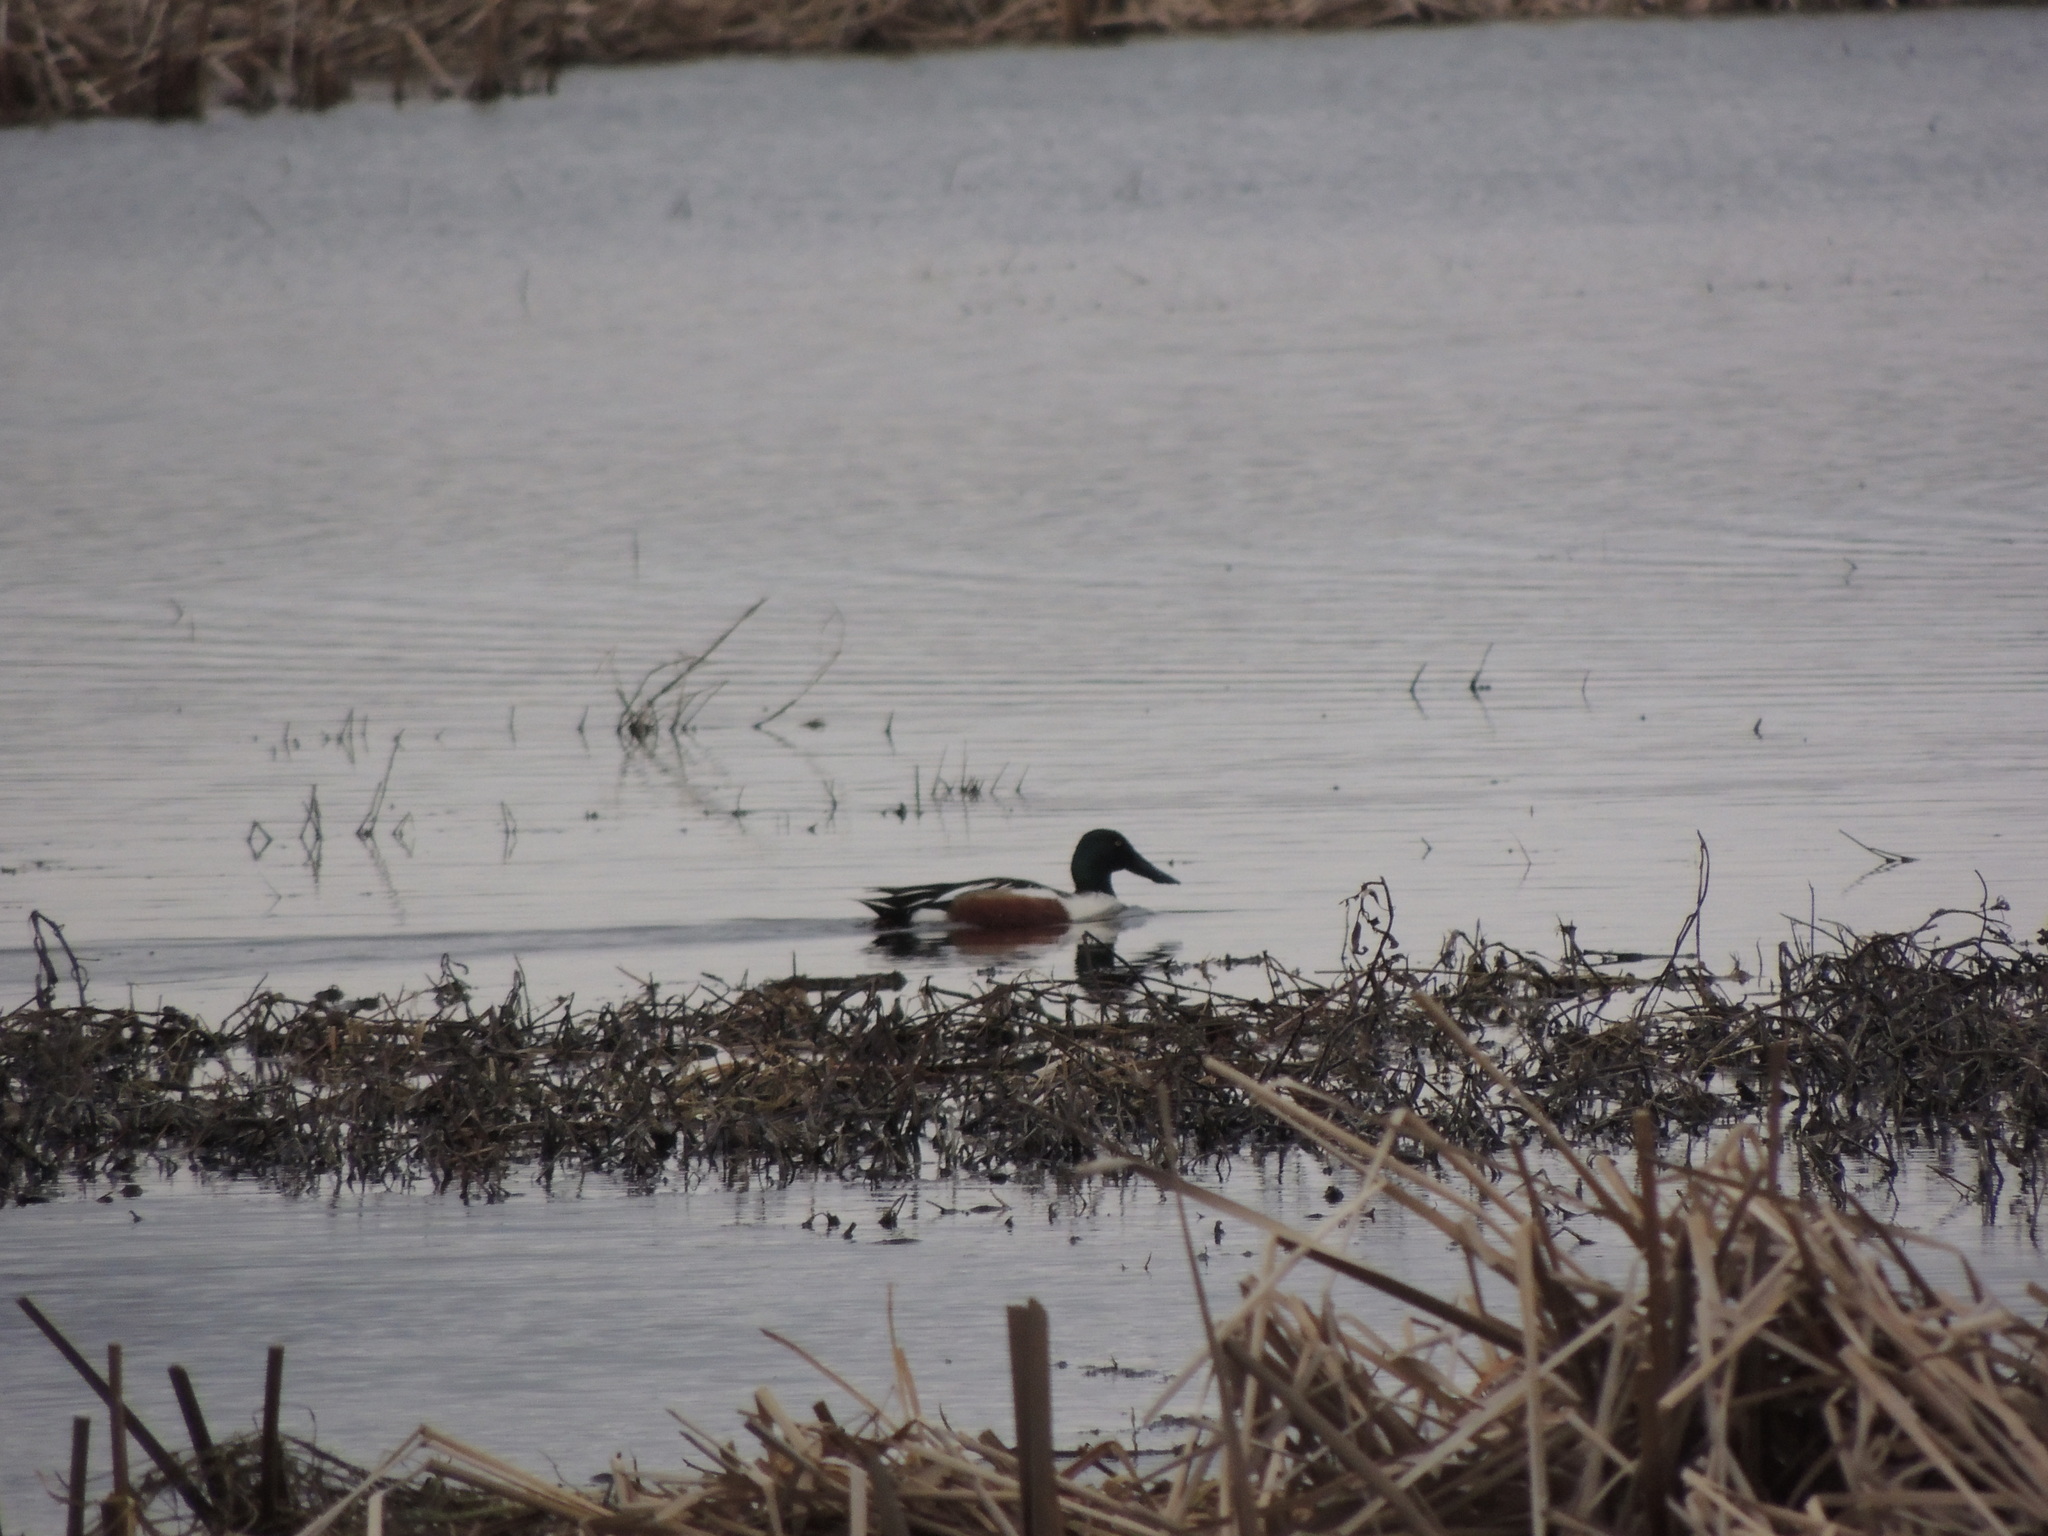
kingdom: Animalia
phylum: Chordata
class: Aves
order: Anseriformes
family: Anatidae
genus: Spatula
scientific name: Spatula clypeata
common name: Northern shoveler
